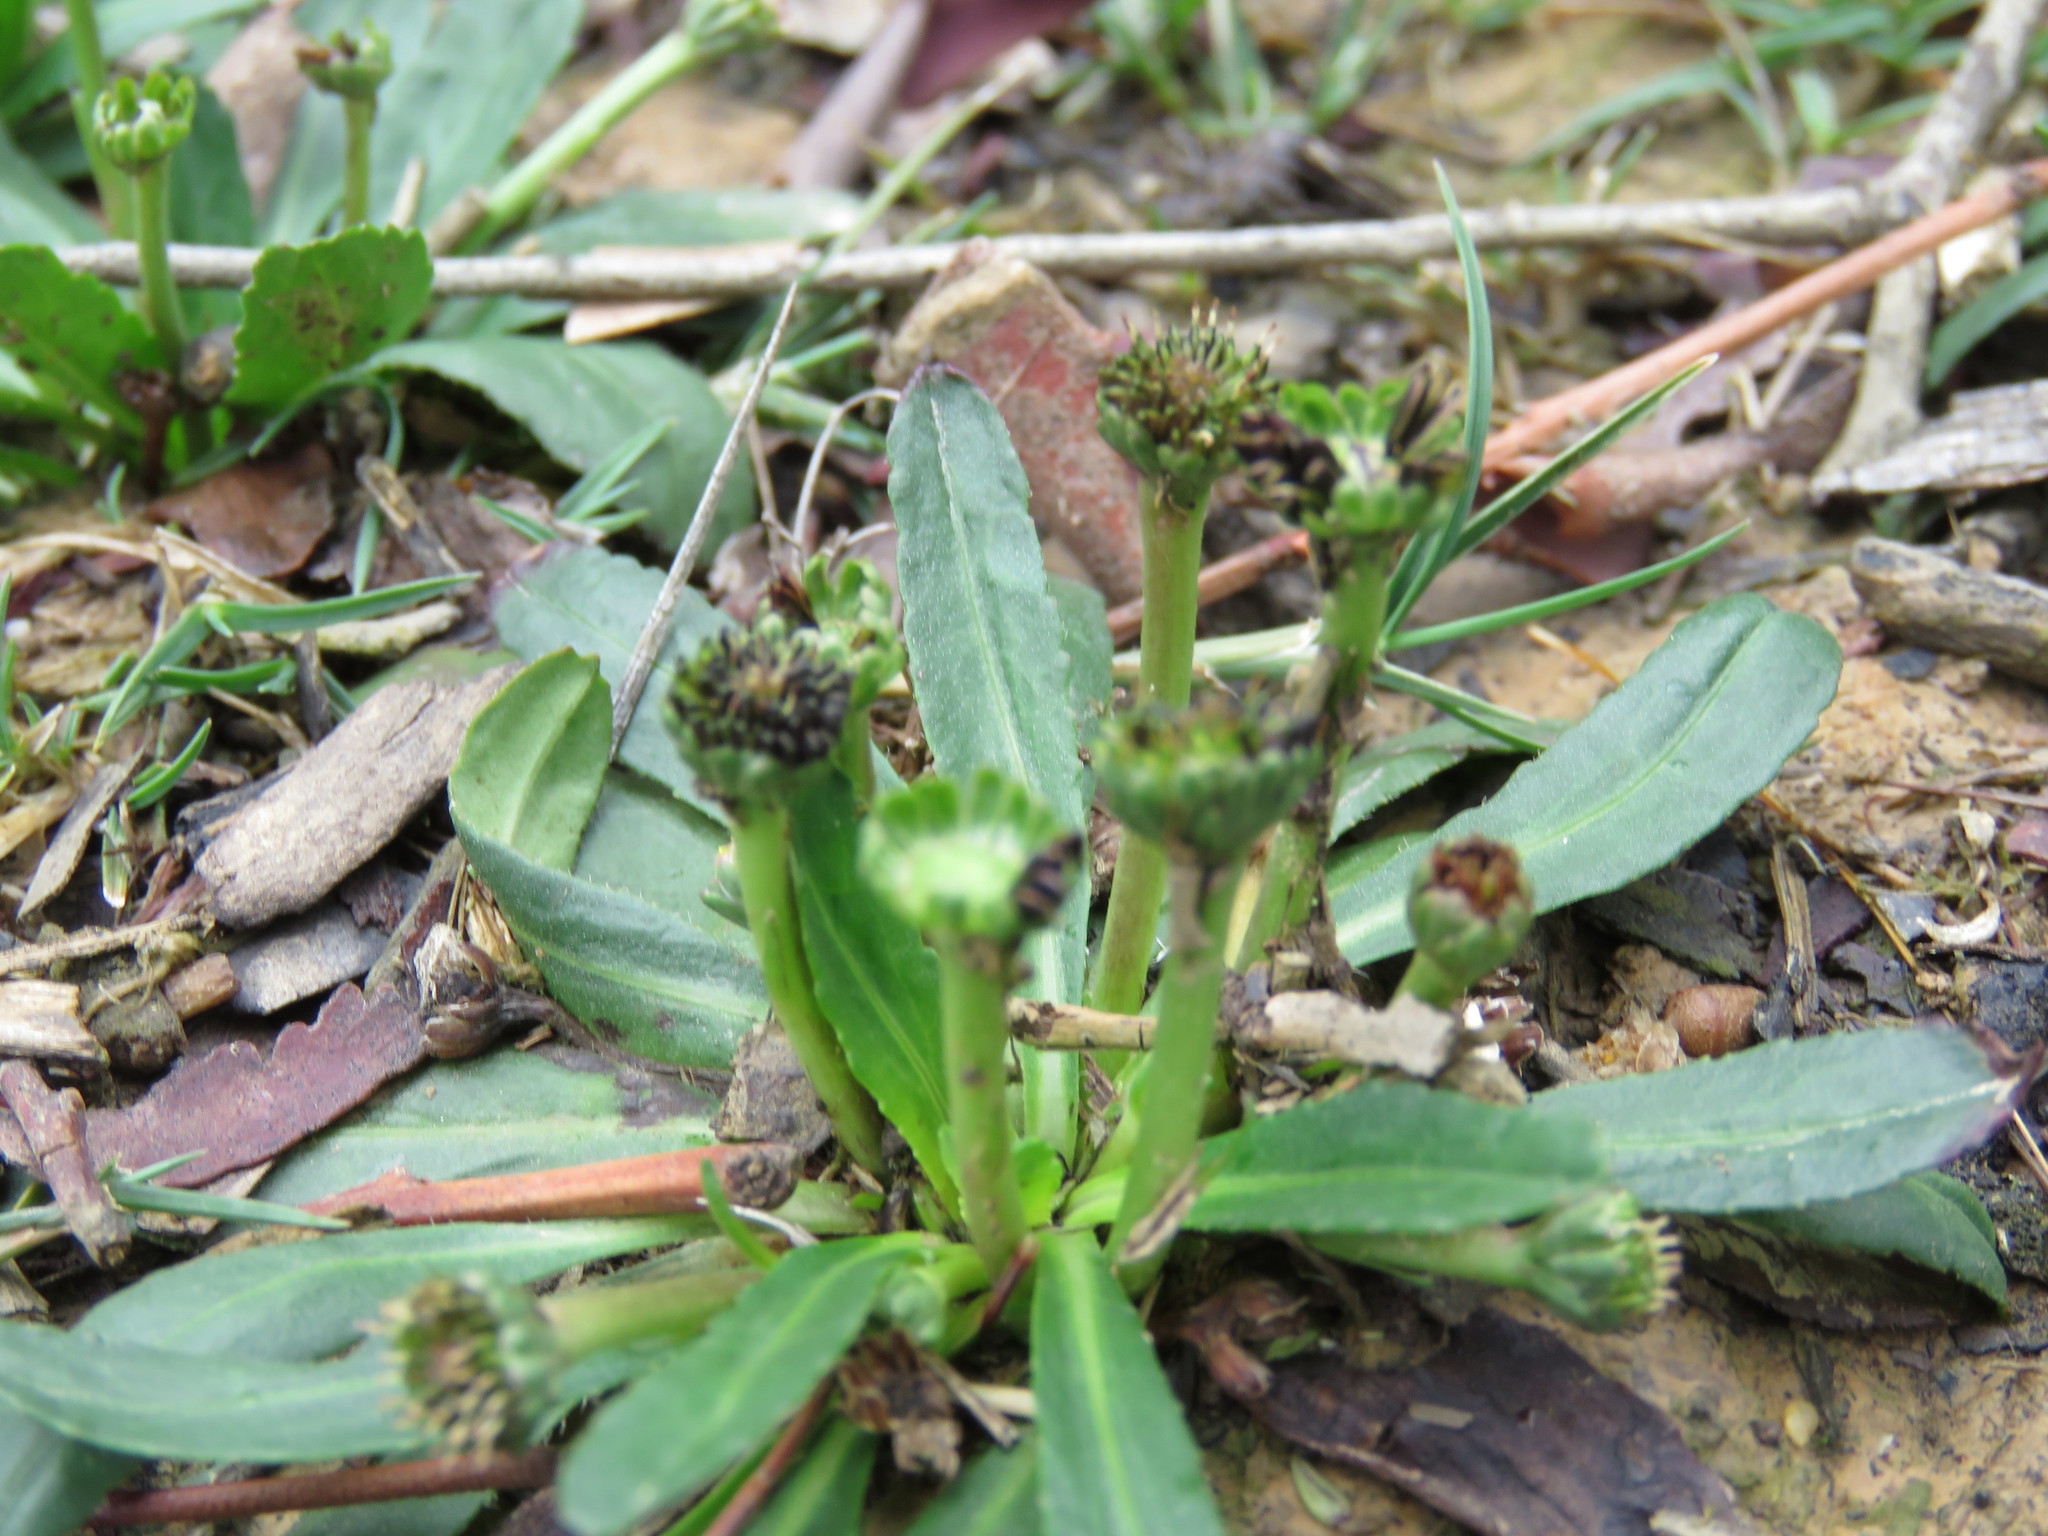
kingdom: Plantae
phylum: Tracheophyta
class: Magnoliopsida
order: Asterales
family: Asteraceae
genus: Solenogyne
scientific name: Solenogyne dominii
